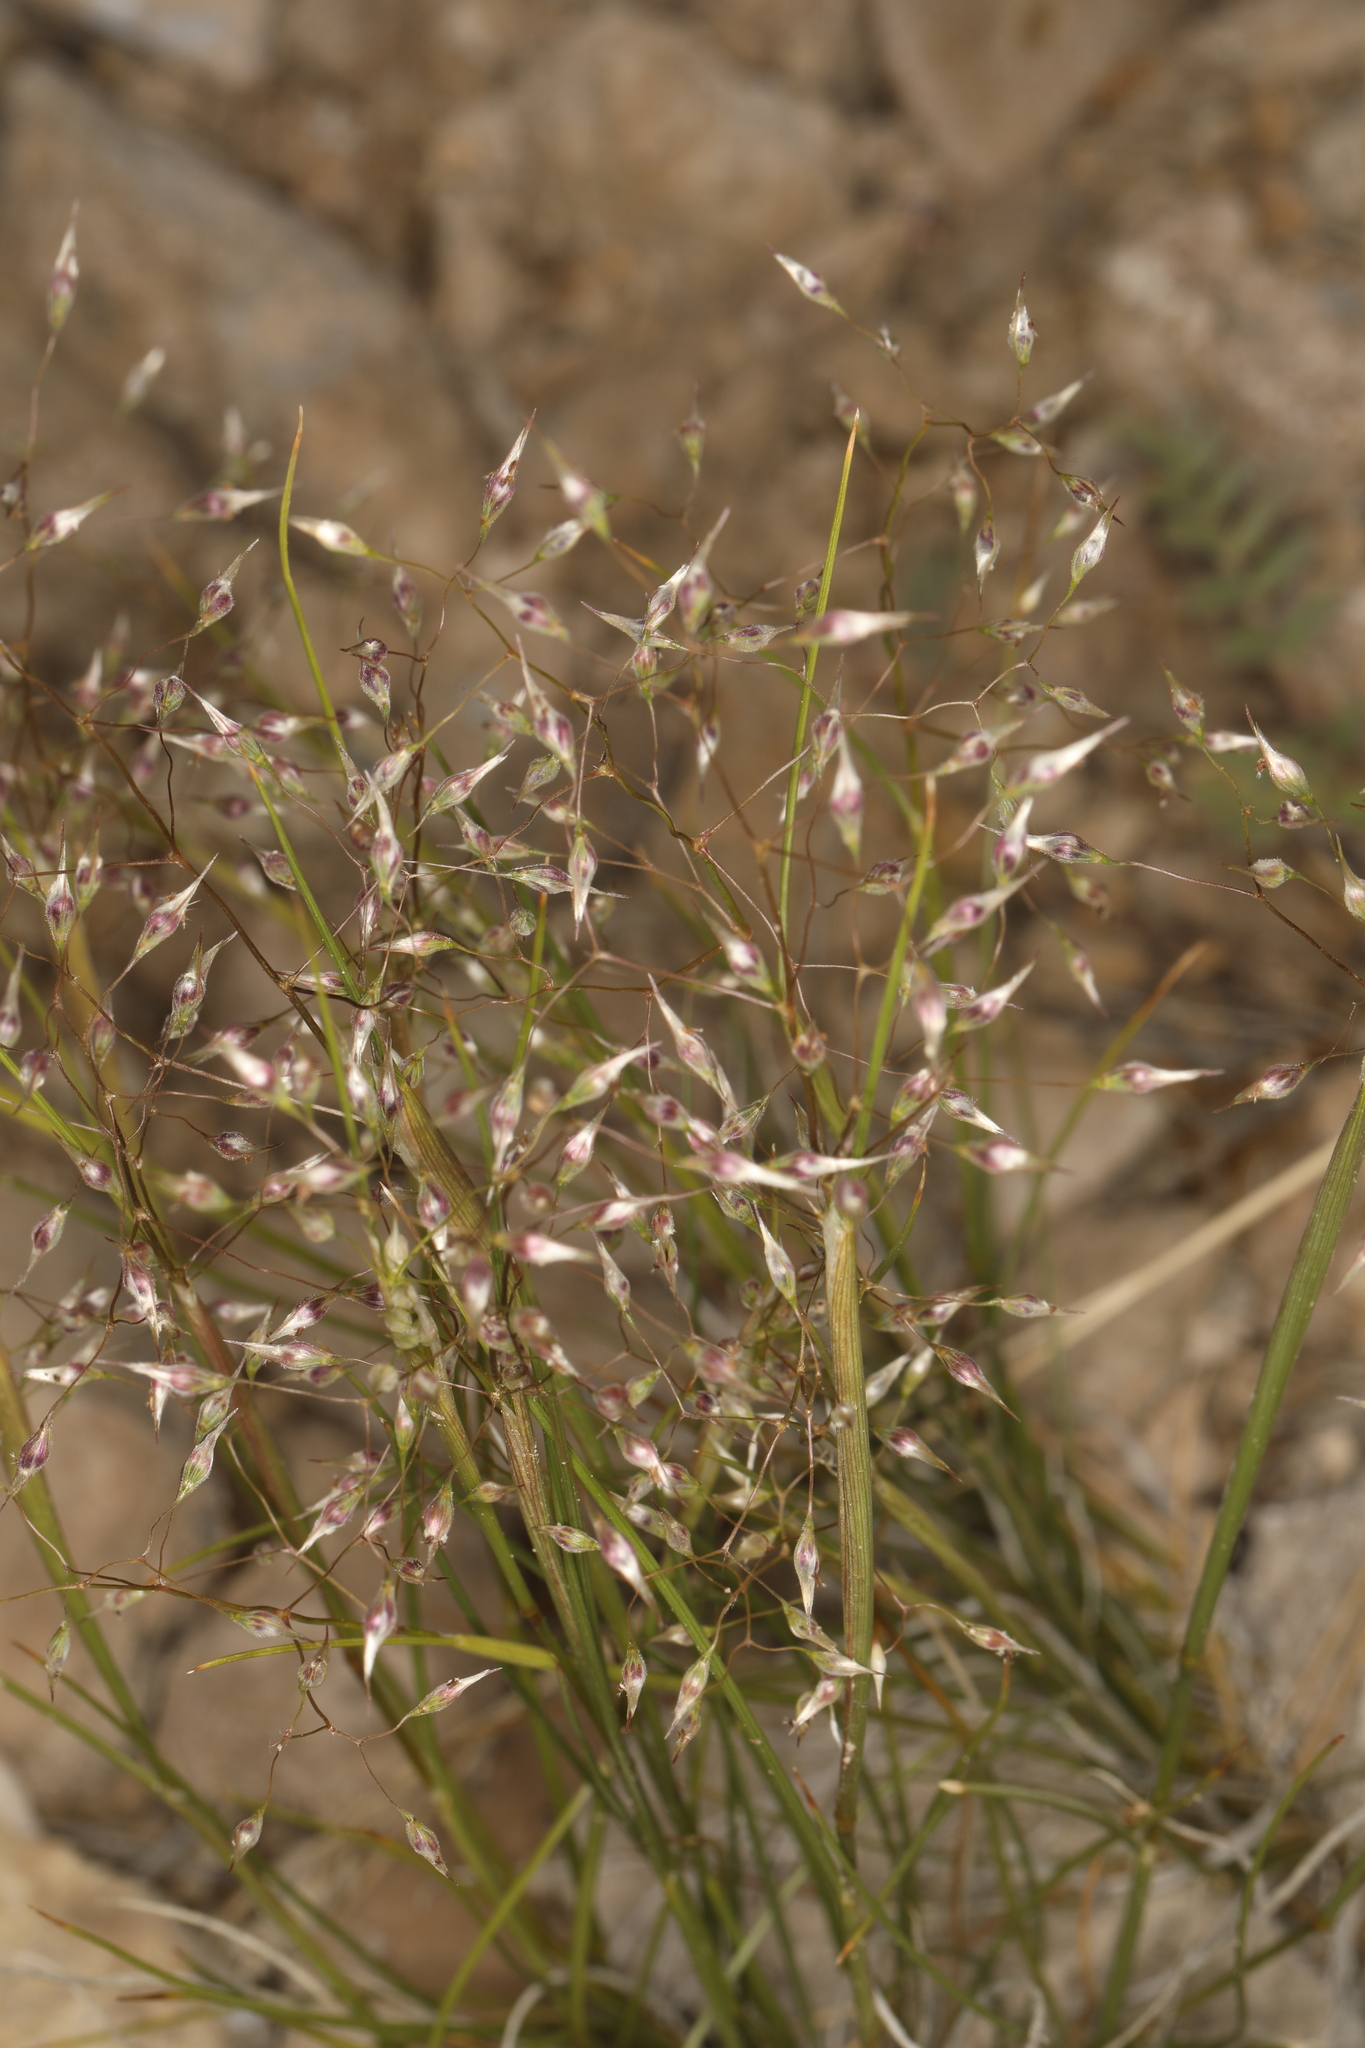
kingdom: Plantae
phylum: Tracheophyta
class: Liliopsida
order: Poales
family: Poaceae
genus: Eriocoma
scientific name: Eriocoma hymenoides
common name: Indian mountain ricegrass
